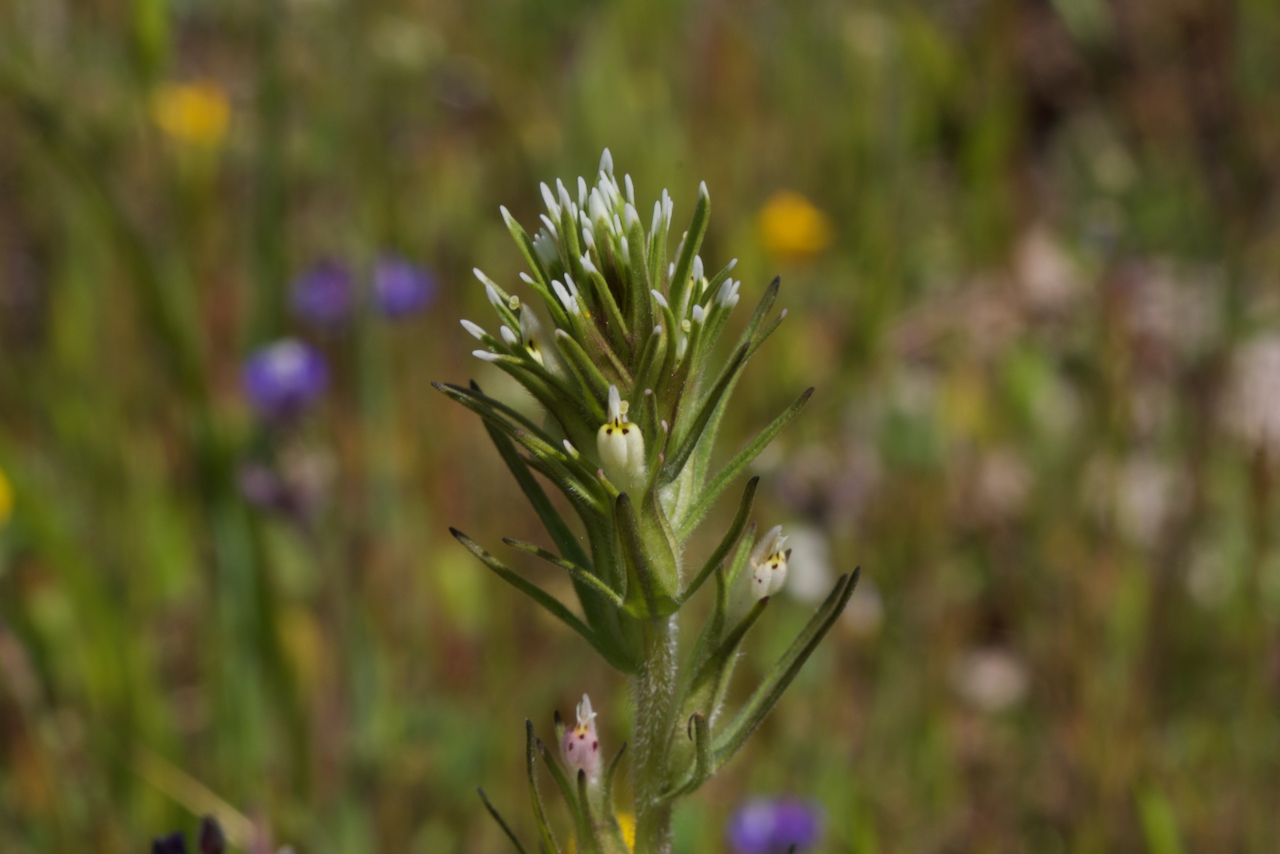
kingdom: Plantae
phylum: Tracheophyta
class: Magnoliopsida
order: Lamiales
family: Orobanchaceae
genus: Castilleja
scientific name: Castilleja attenuata
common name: Valley tassels
